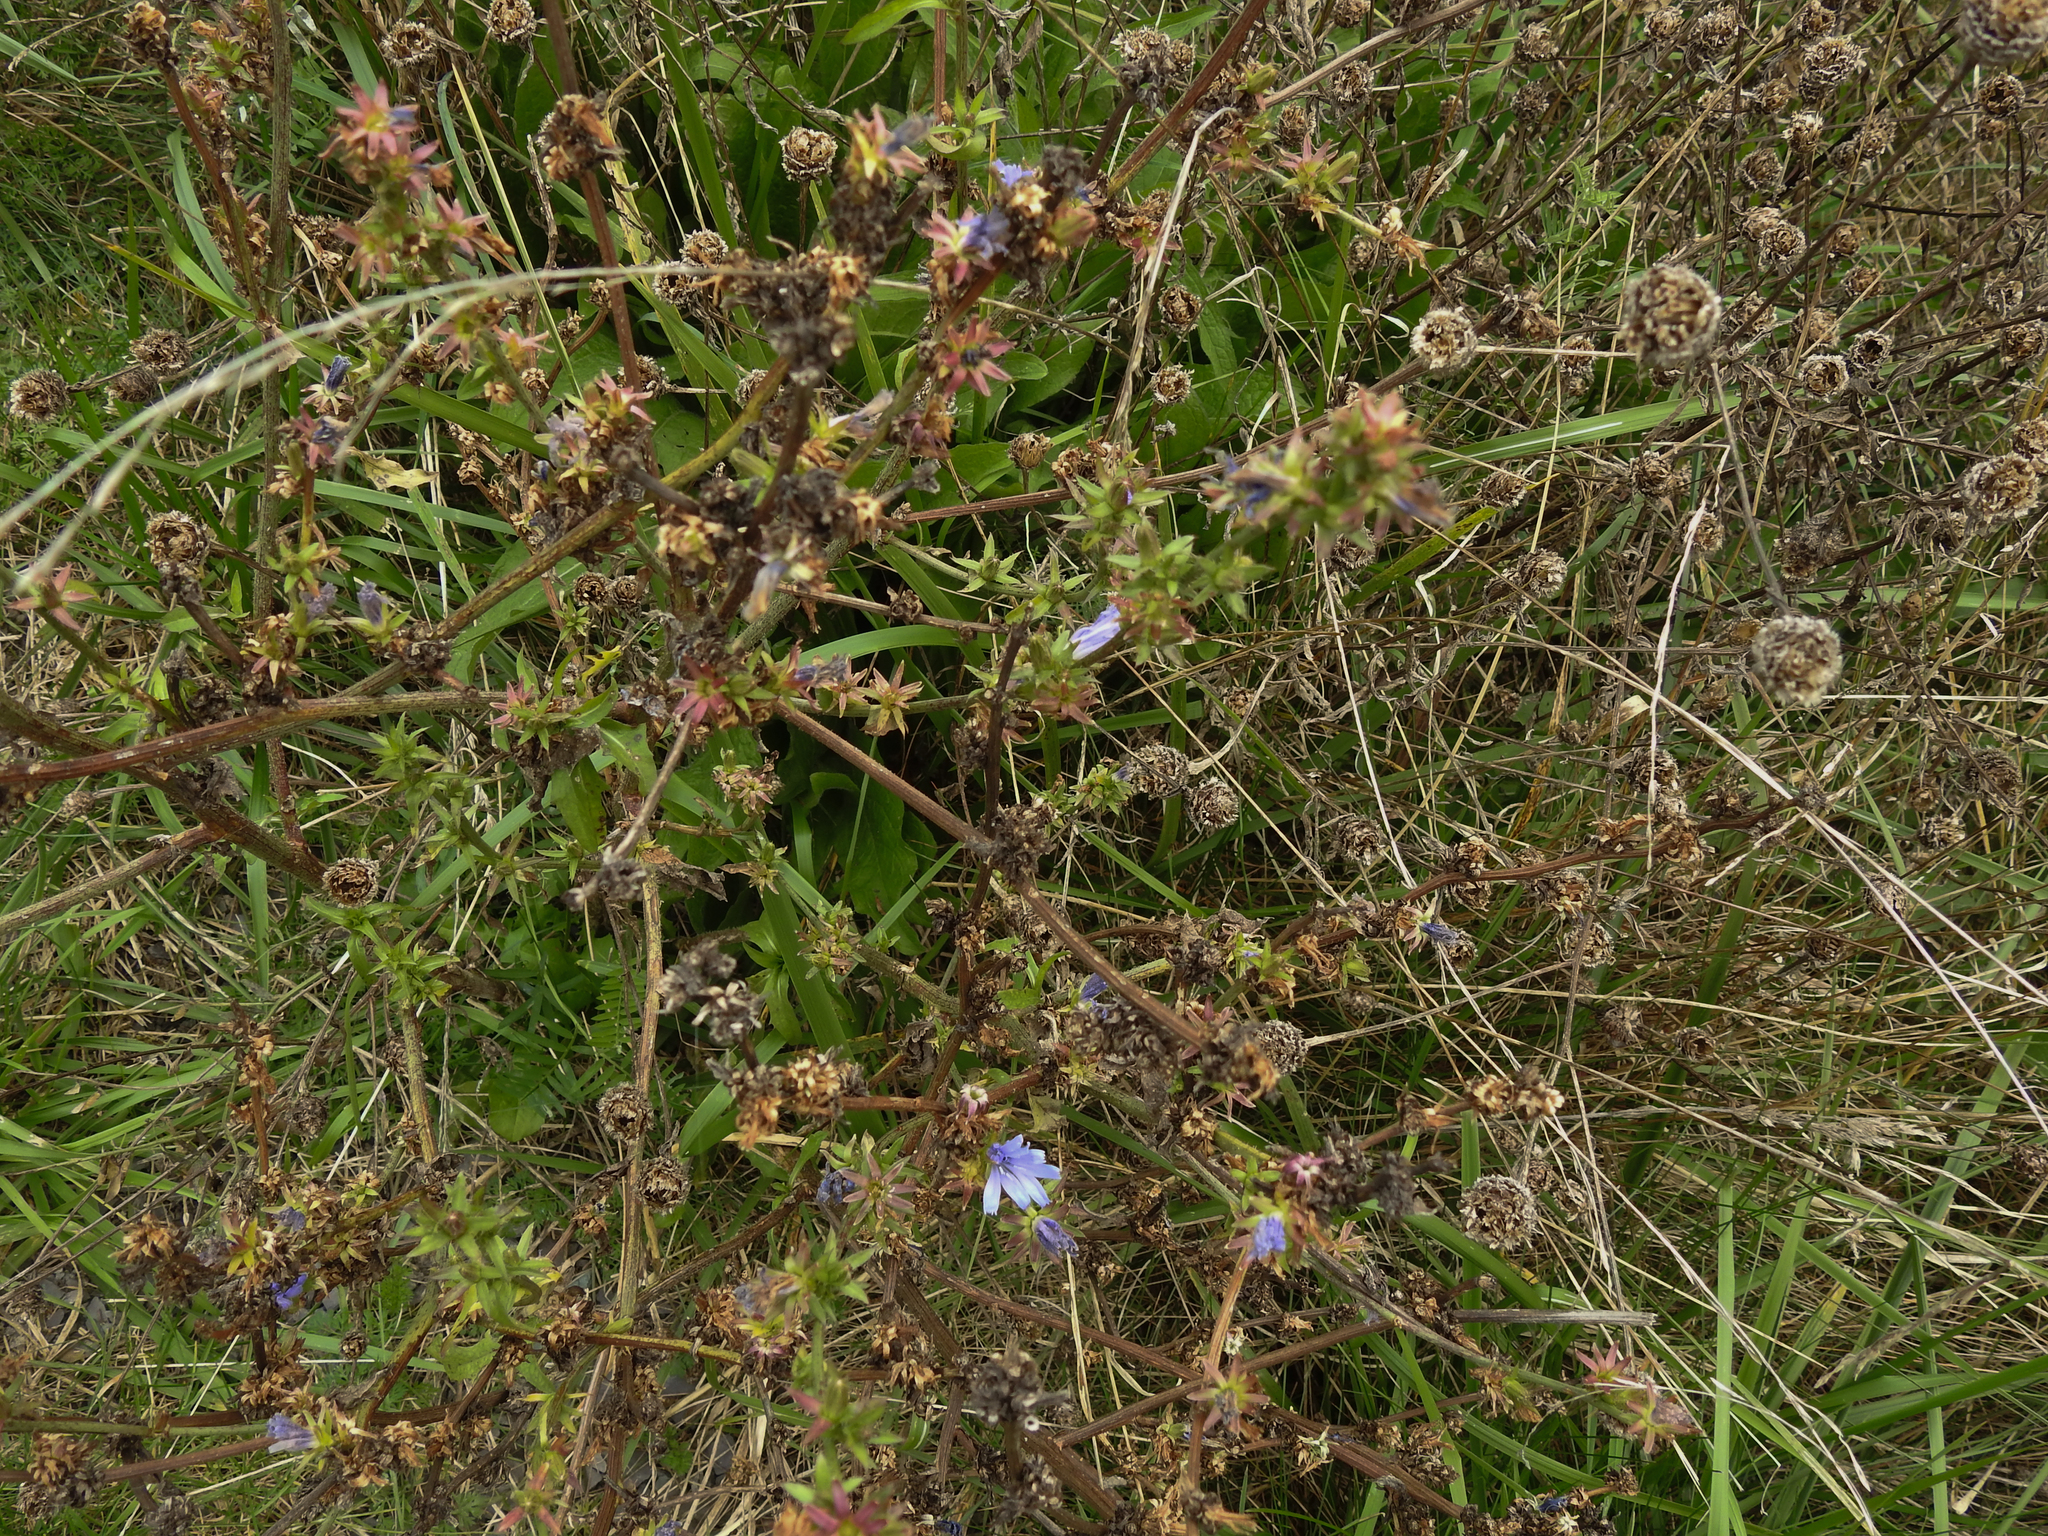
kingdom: Plantae
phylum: Tracheophyta
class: Magnoliopsida
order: Asterales
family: Asteraceae
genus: Cichorium
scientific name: Cichorium intybus
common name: Chicory
